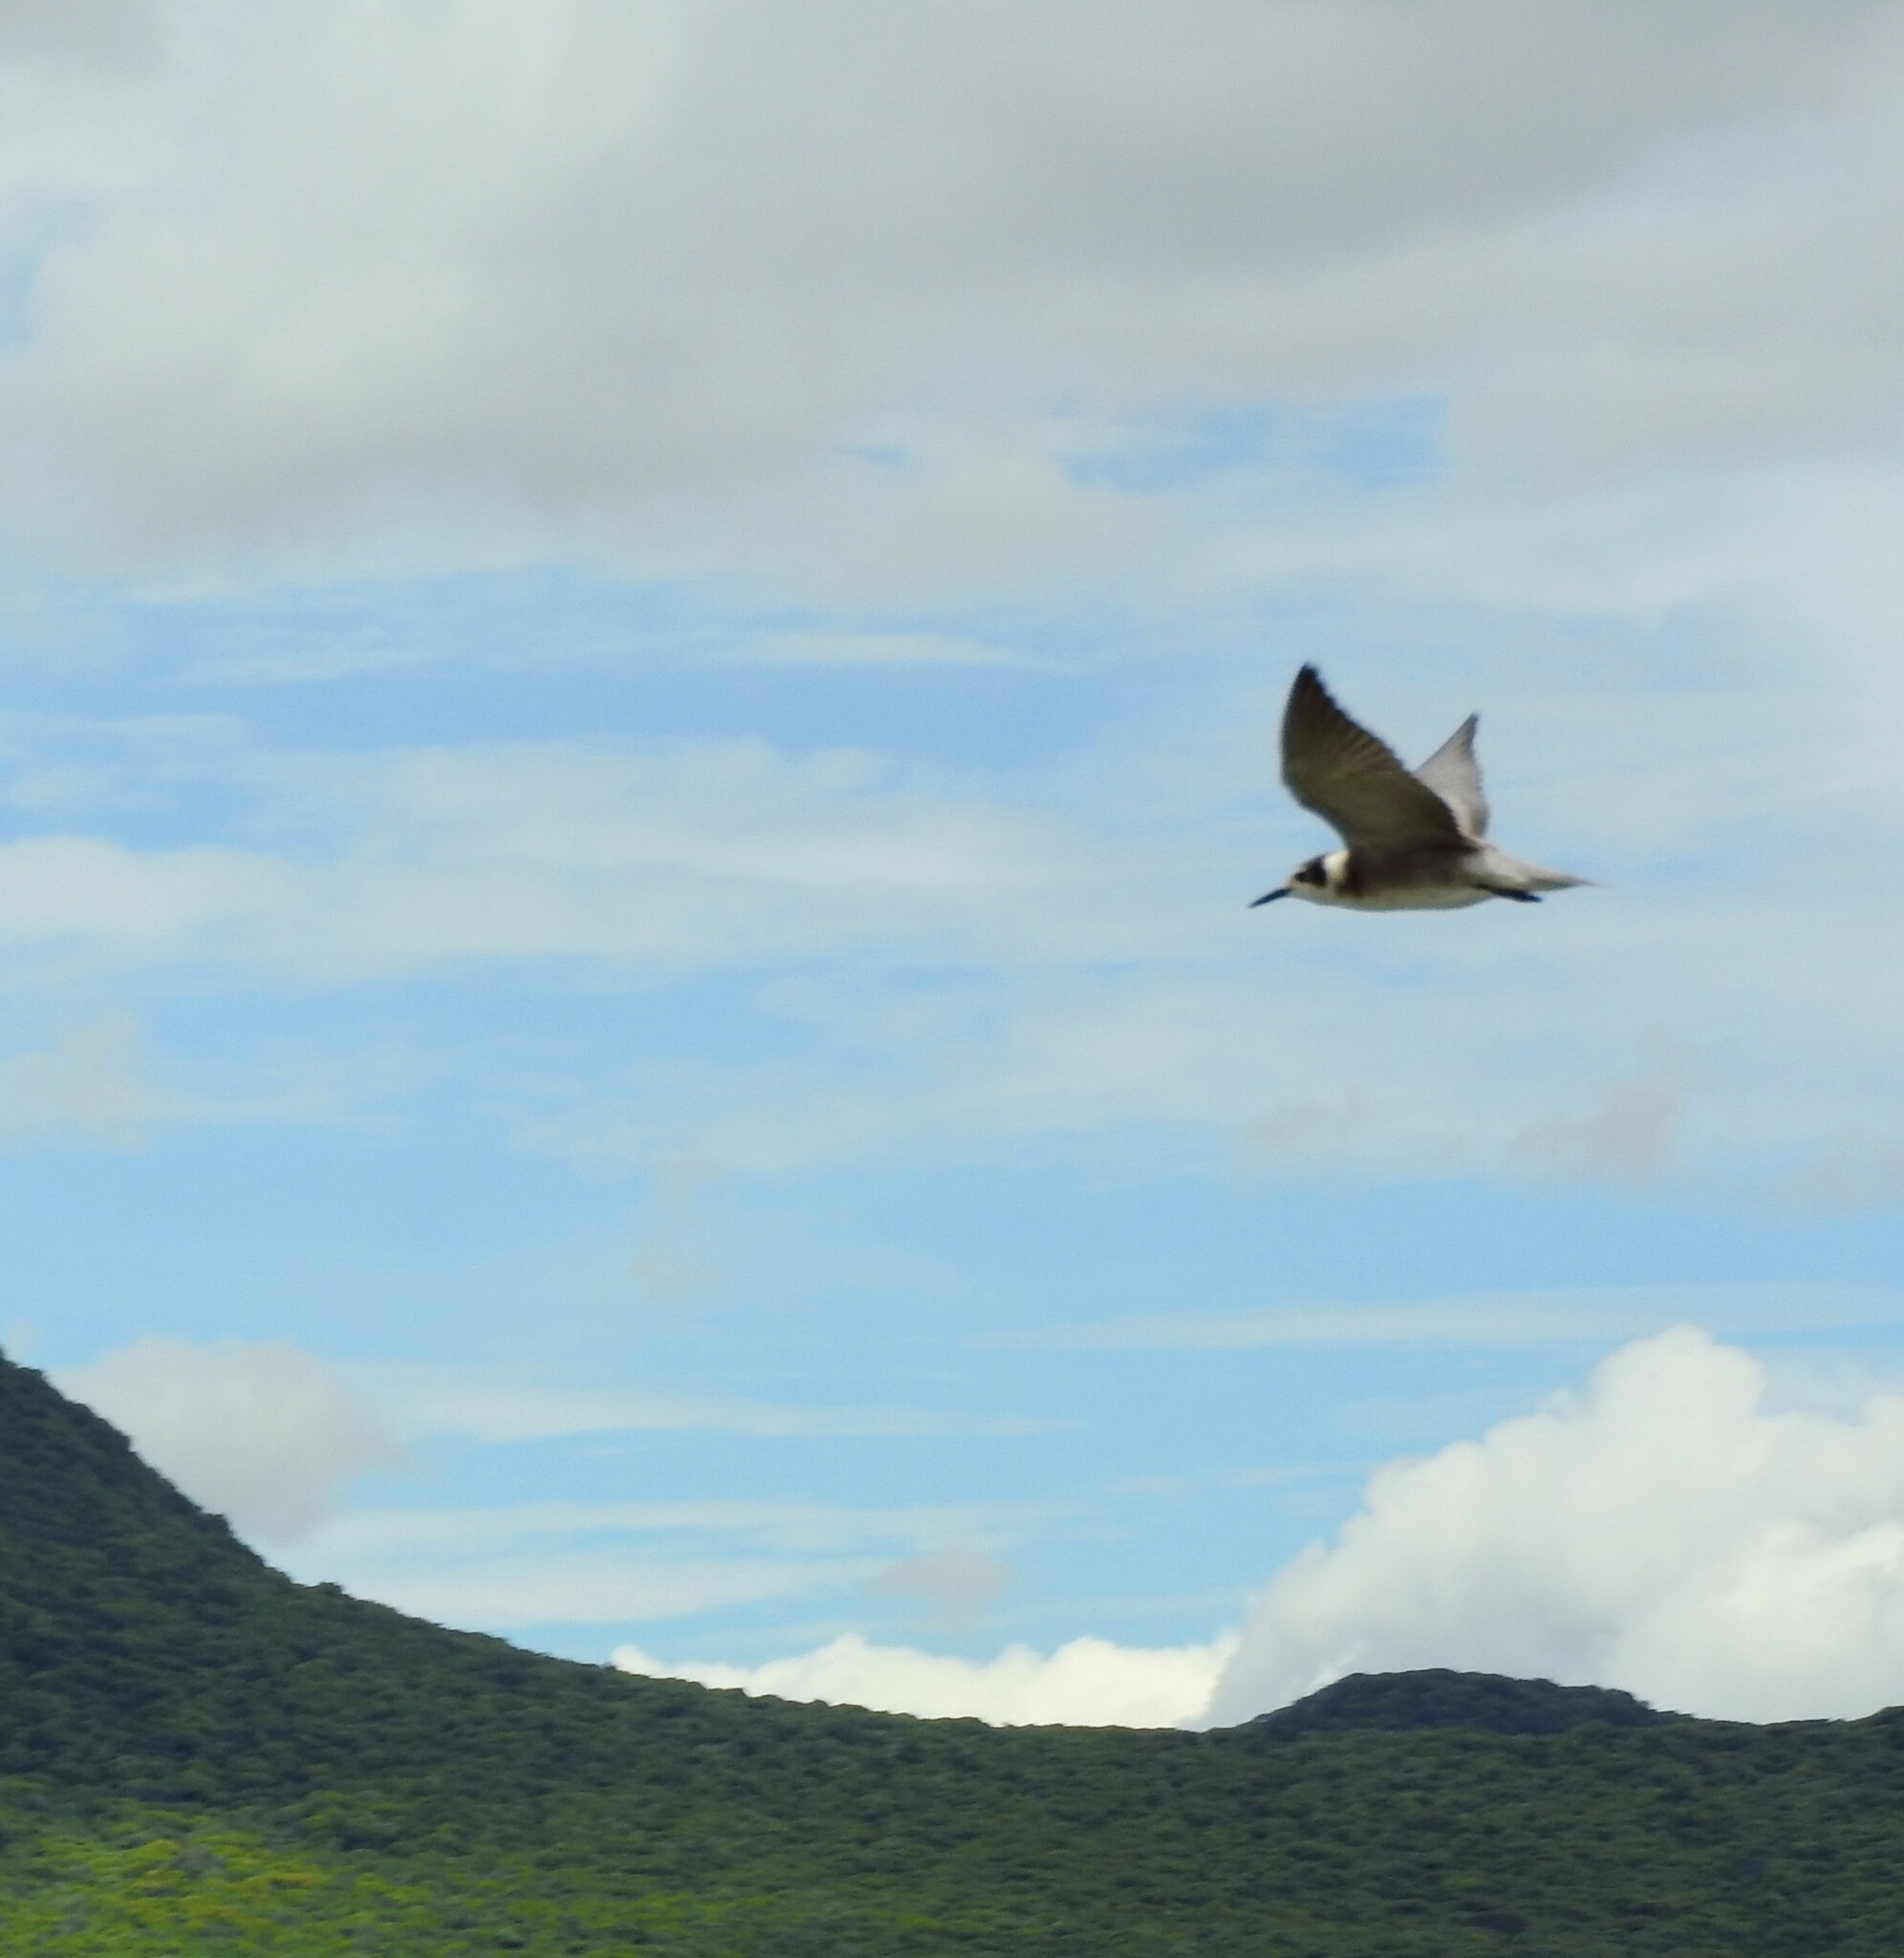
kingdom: Animalia
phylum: Chordata
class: Aves
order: Charadriiformes
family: Laridae
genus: Chlidonias
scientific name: Chlidonias niger
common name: Black tern
